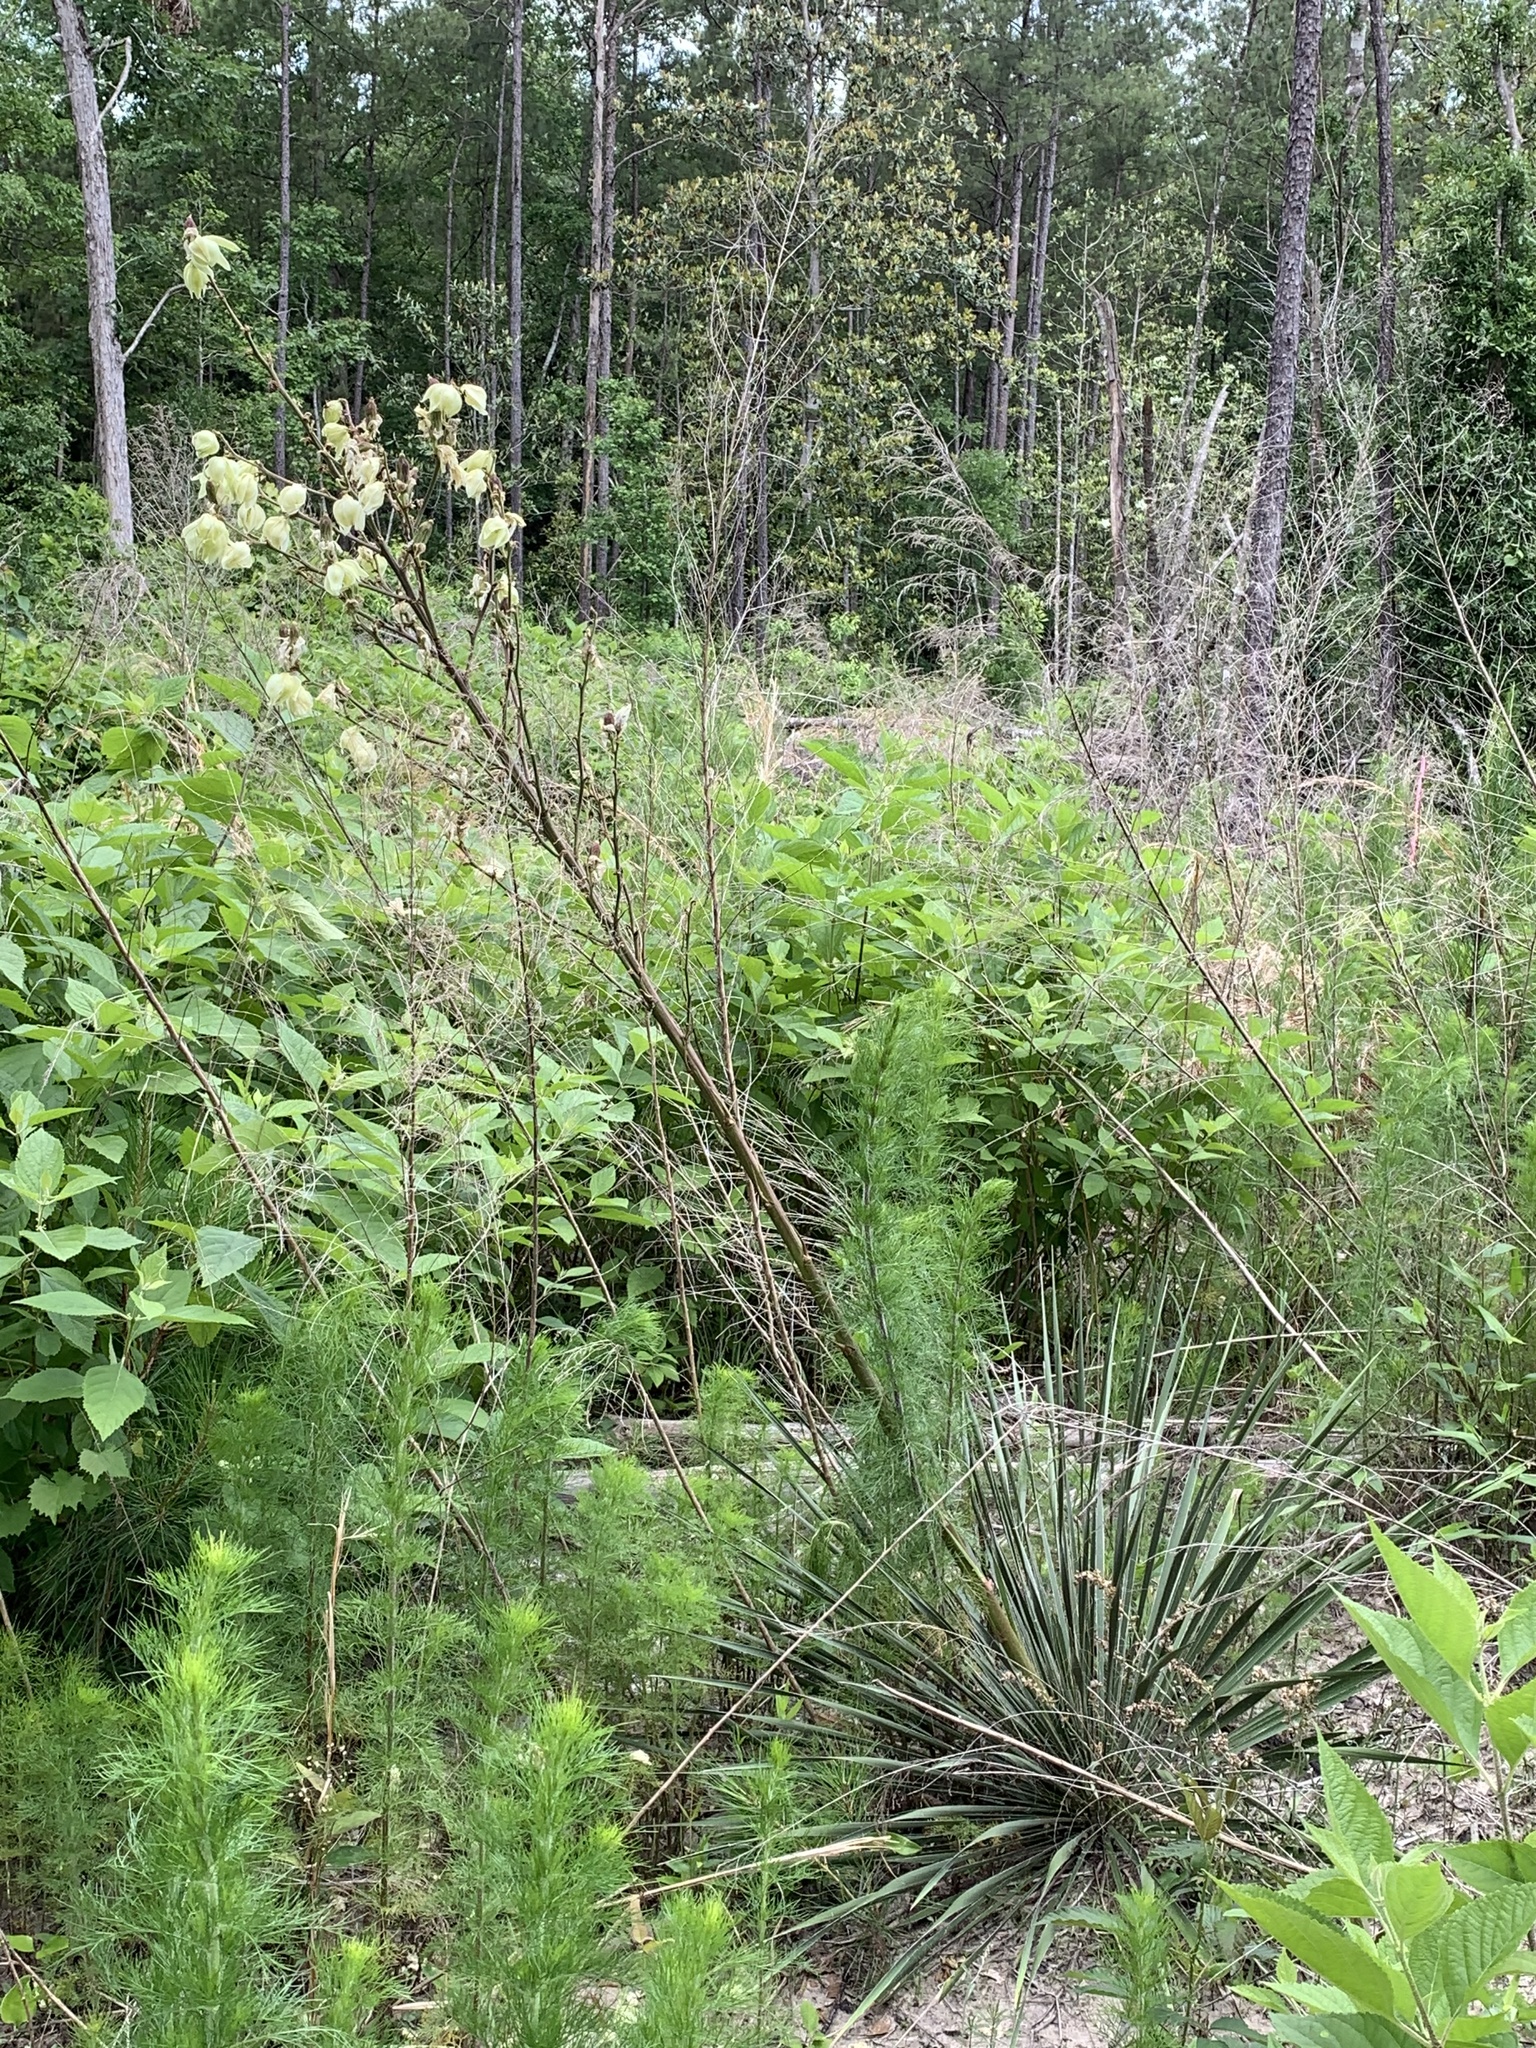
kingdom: Plantae
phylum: Tracheophyta
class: Liliopsida
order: Asparagales
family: Asparagaceae
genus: Yucca
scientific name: Yucca flaccida
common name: Adam's-needle
